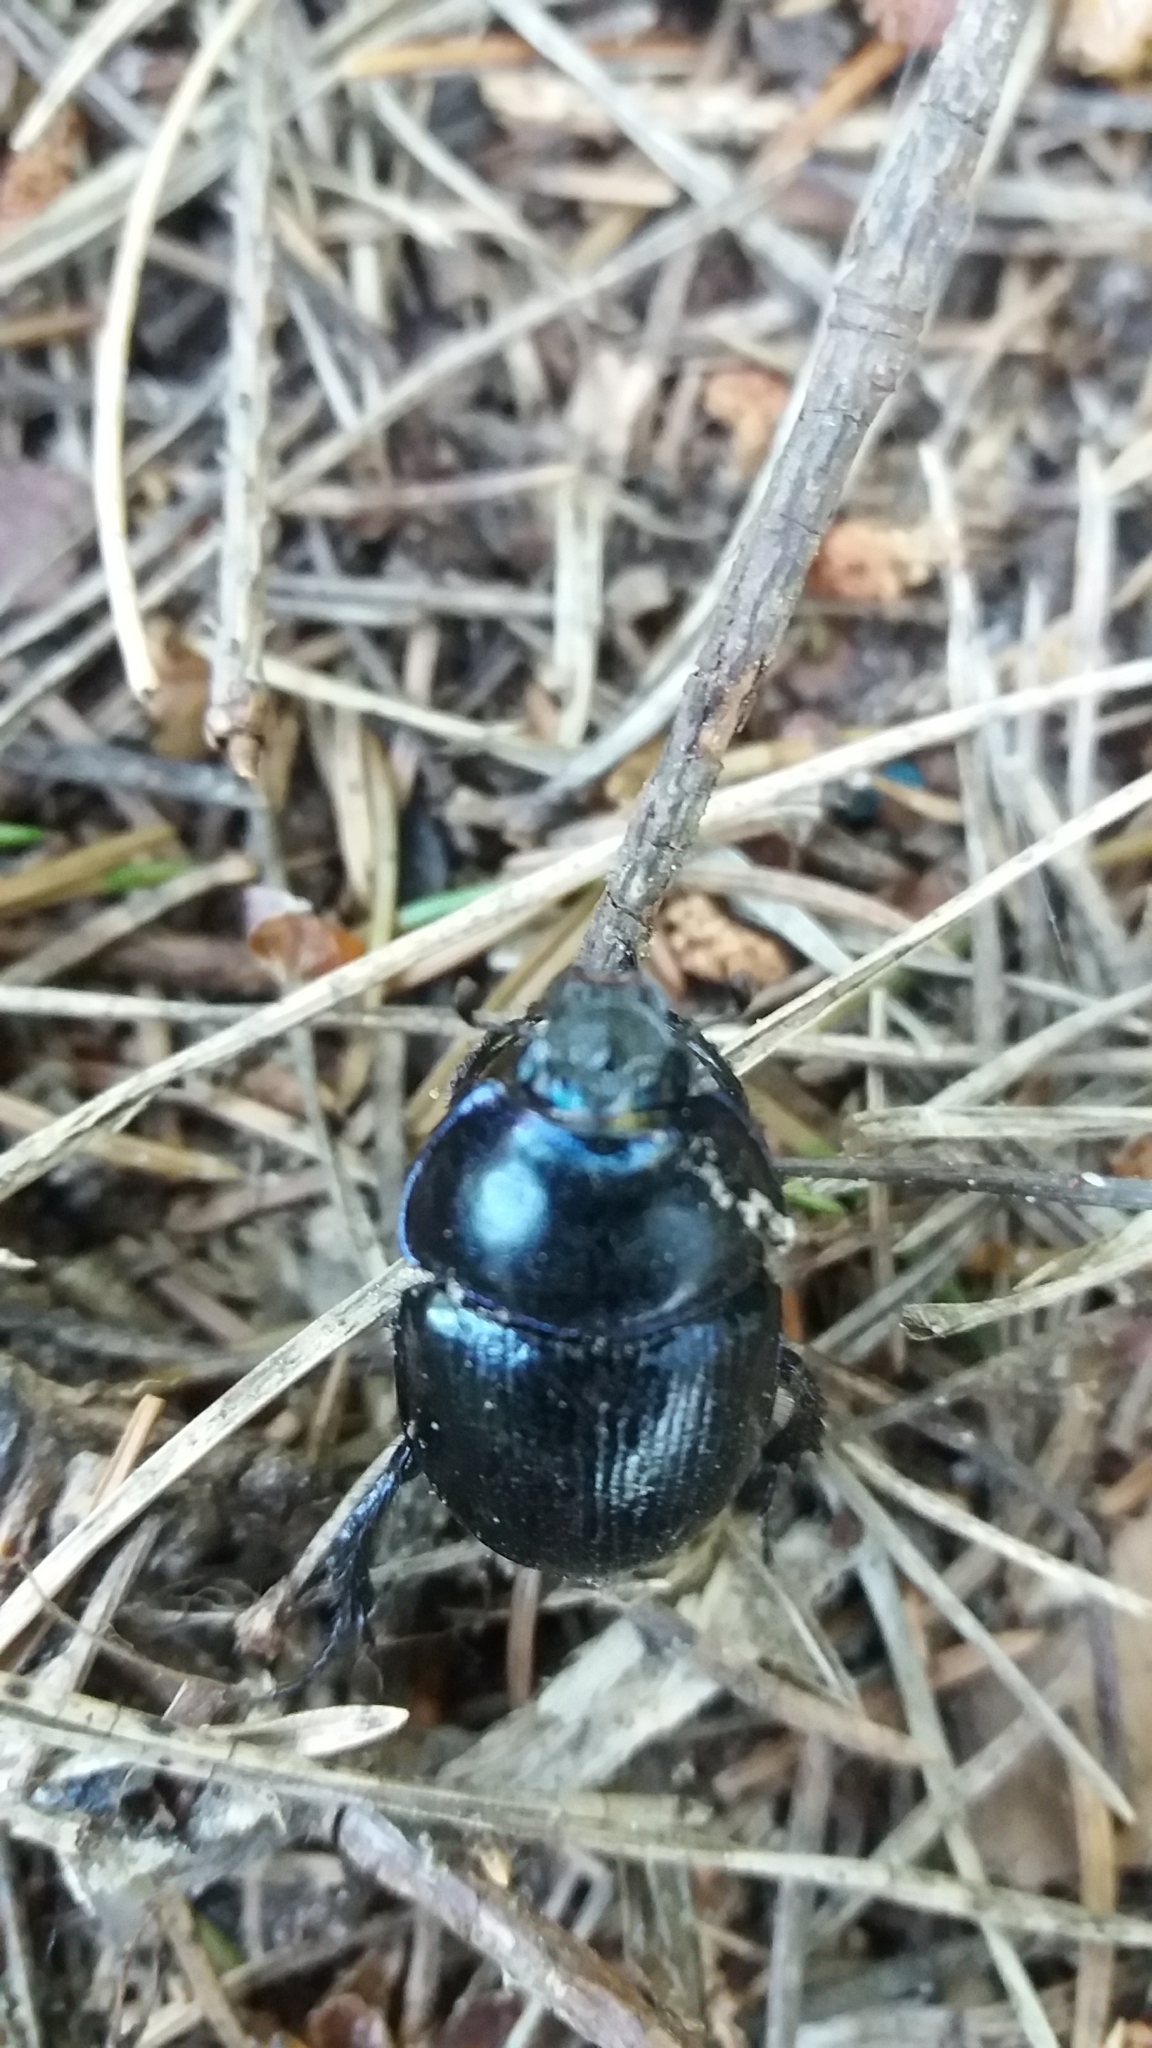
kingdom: Animalia
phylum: Arthropoda
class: Insecta
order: Coleoptera
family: Geotrupidae
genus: Anoplotrupes
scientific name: Anoplotrupes stercorosus
